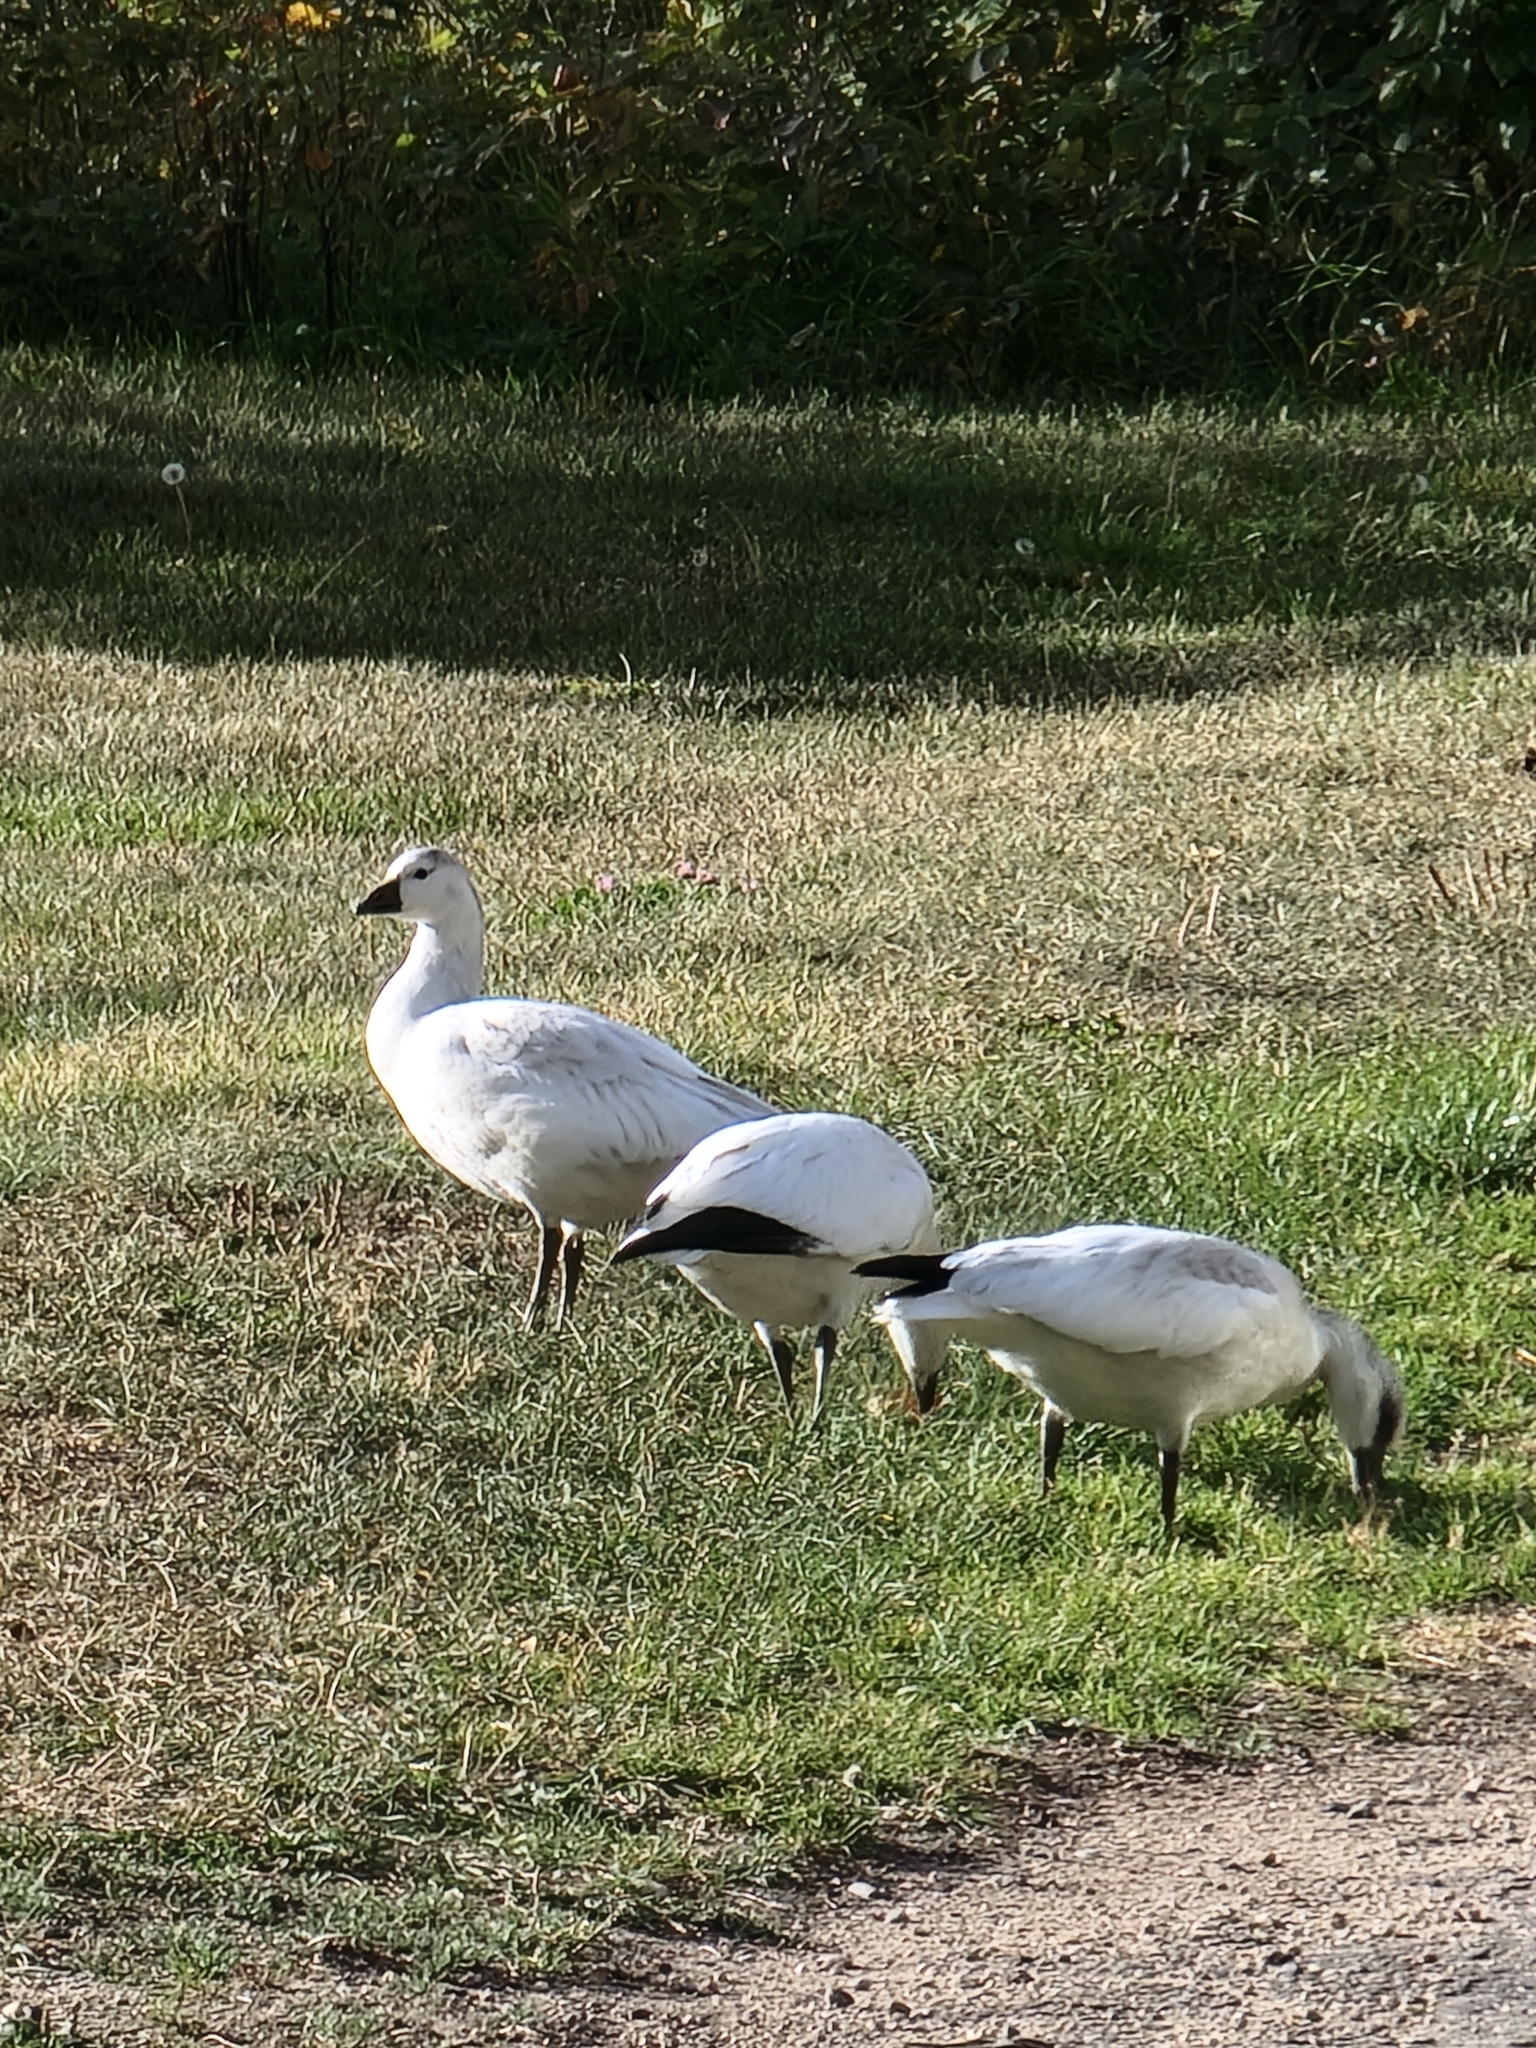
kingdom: Animalia
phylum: Chordata
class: Aves
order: Anseriformes
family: Anatidae
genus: Anser
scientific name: Anser rossii
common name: Ross's goose
